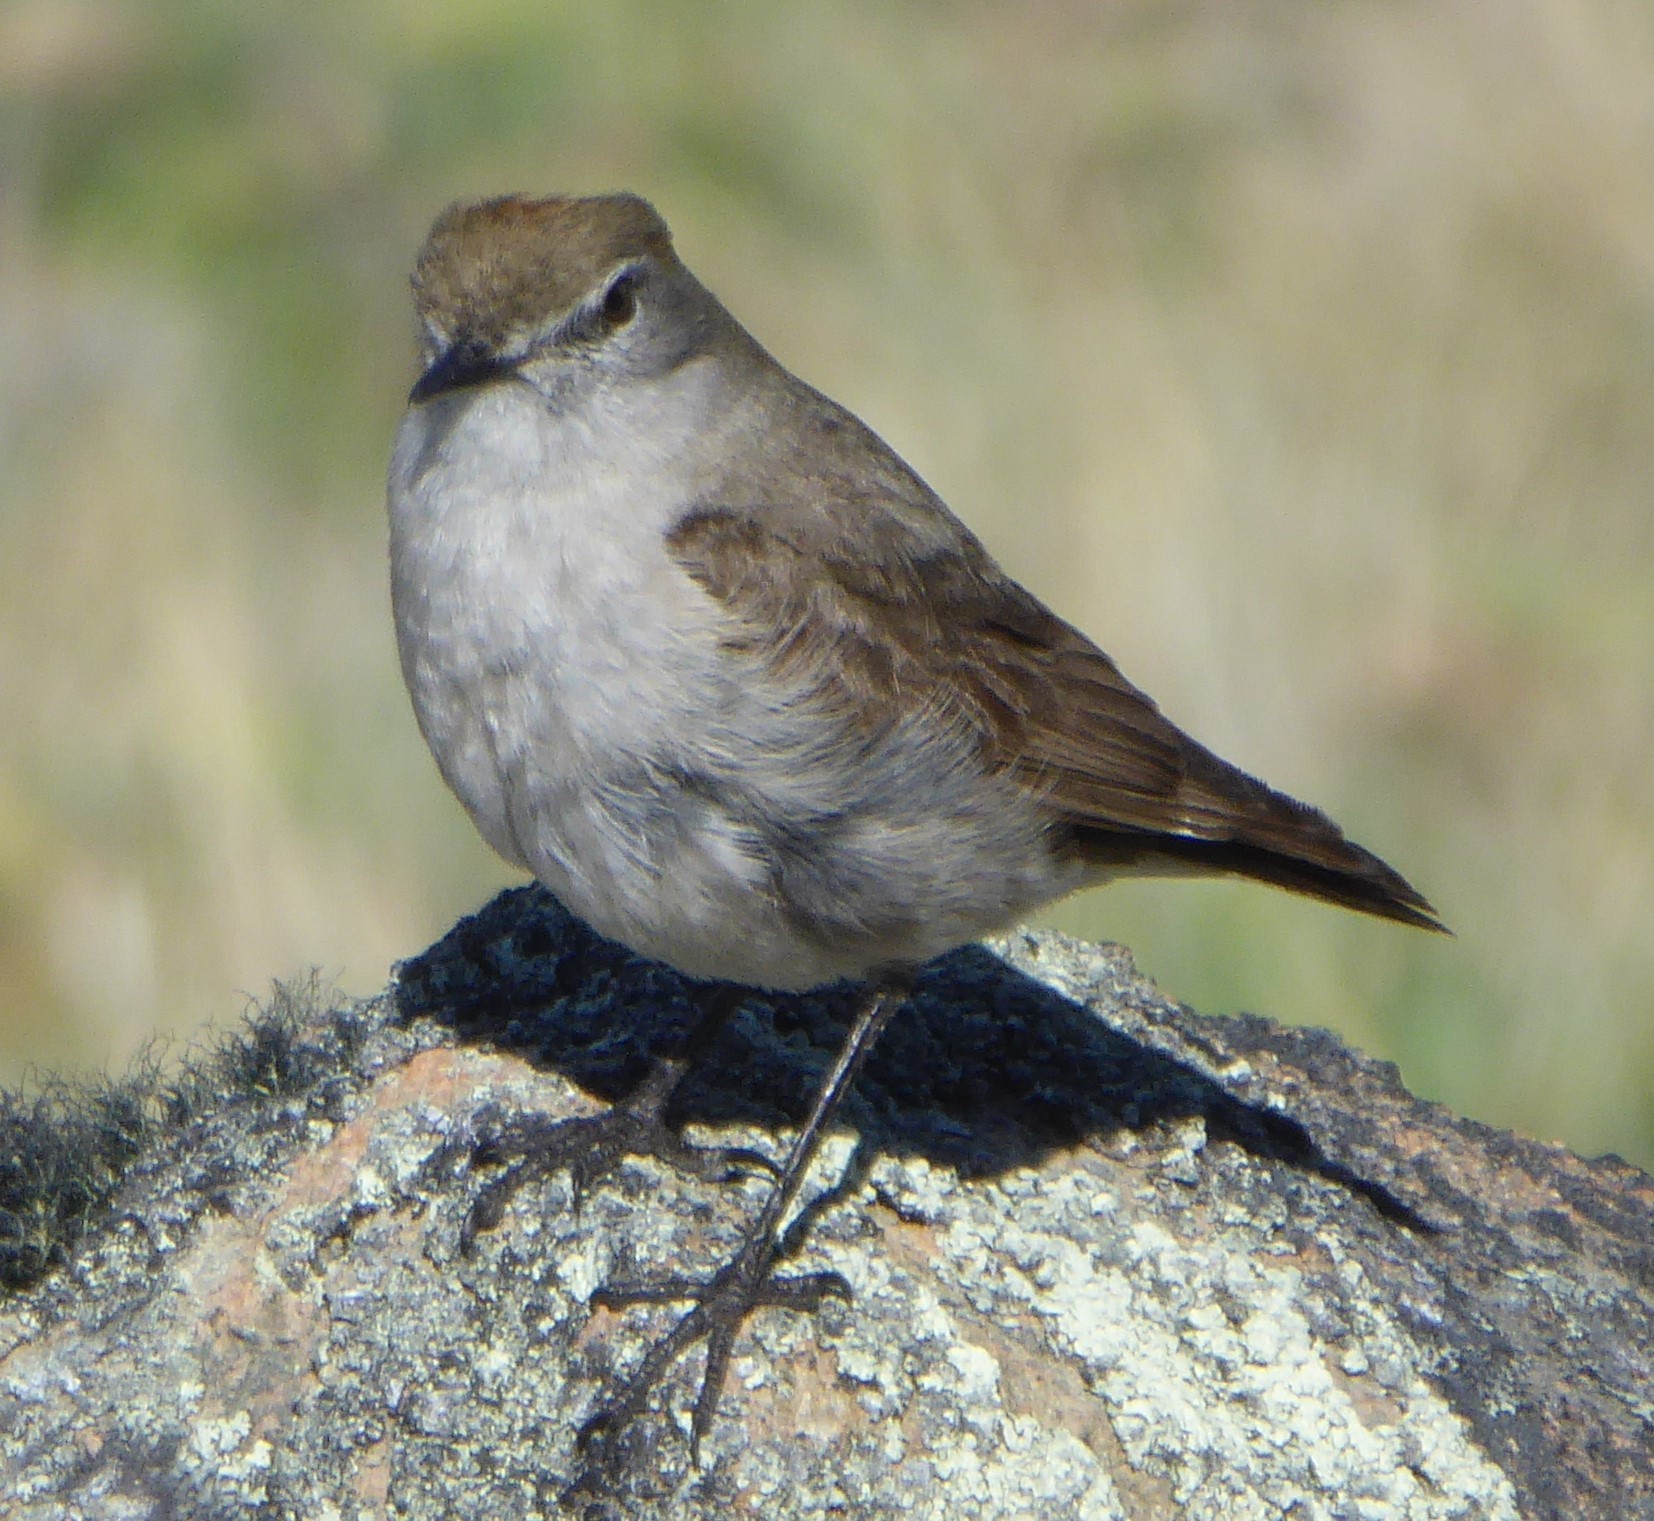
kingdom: Animalia
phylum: Chordata
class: Aves
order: Passeriformes
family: Tyrannidae
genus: Muscisaxicola
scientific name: Muscisaxicola albilora
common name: White-browed ground tyrant
